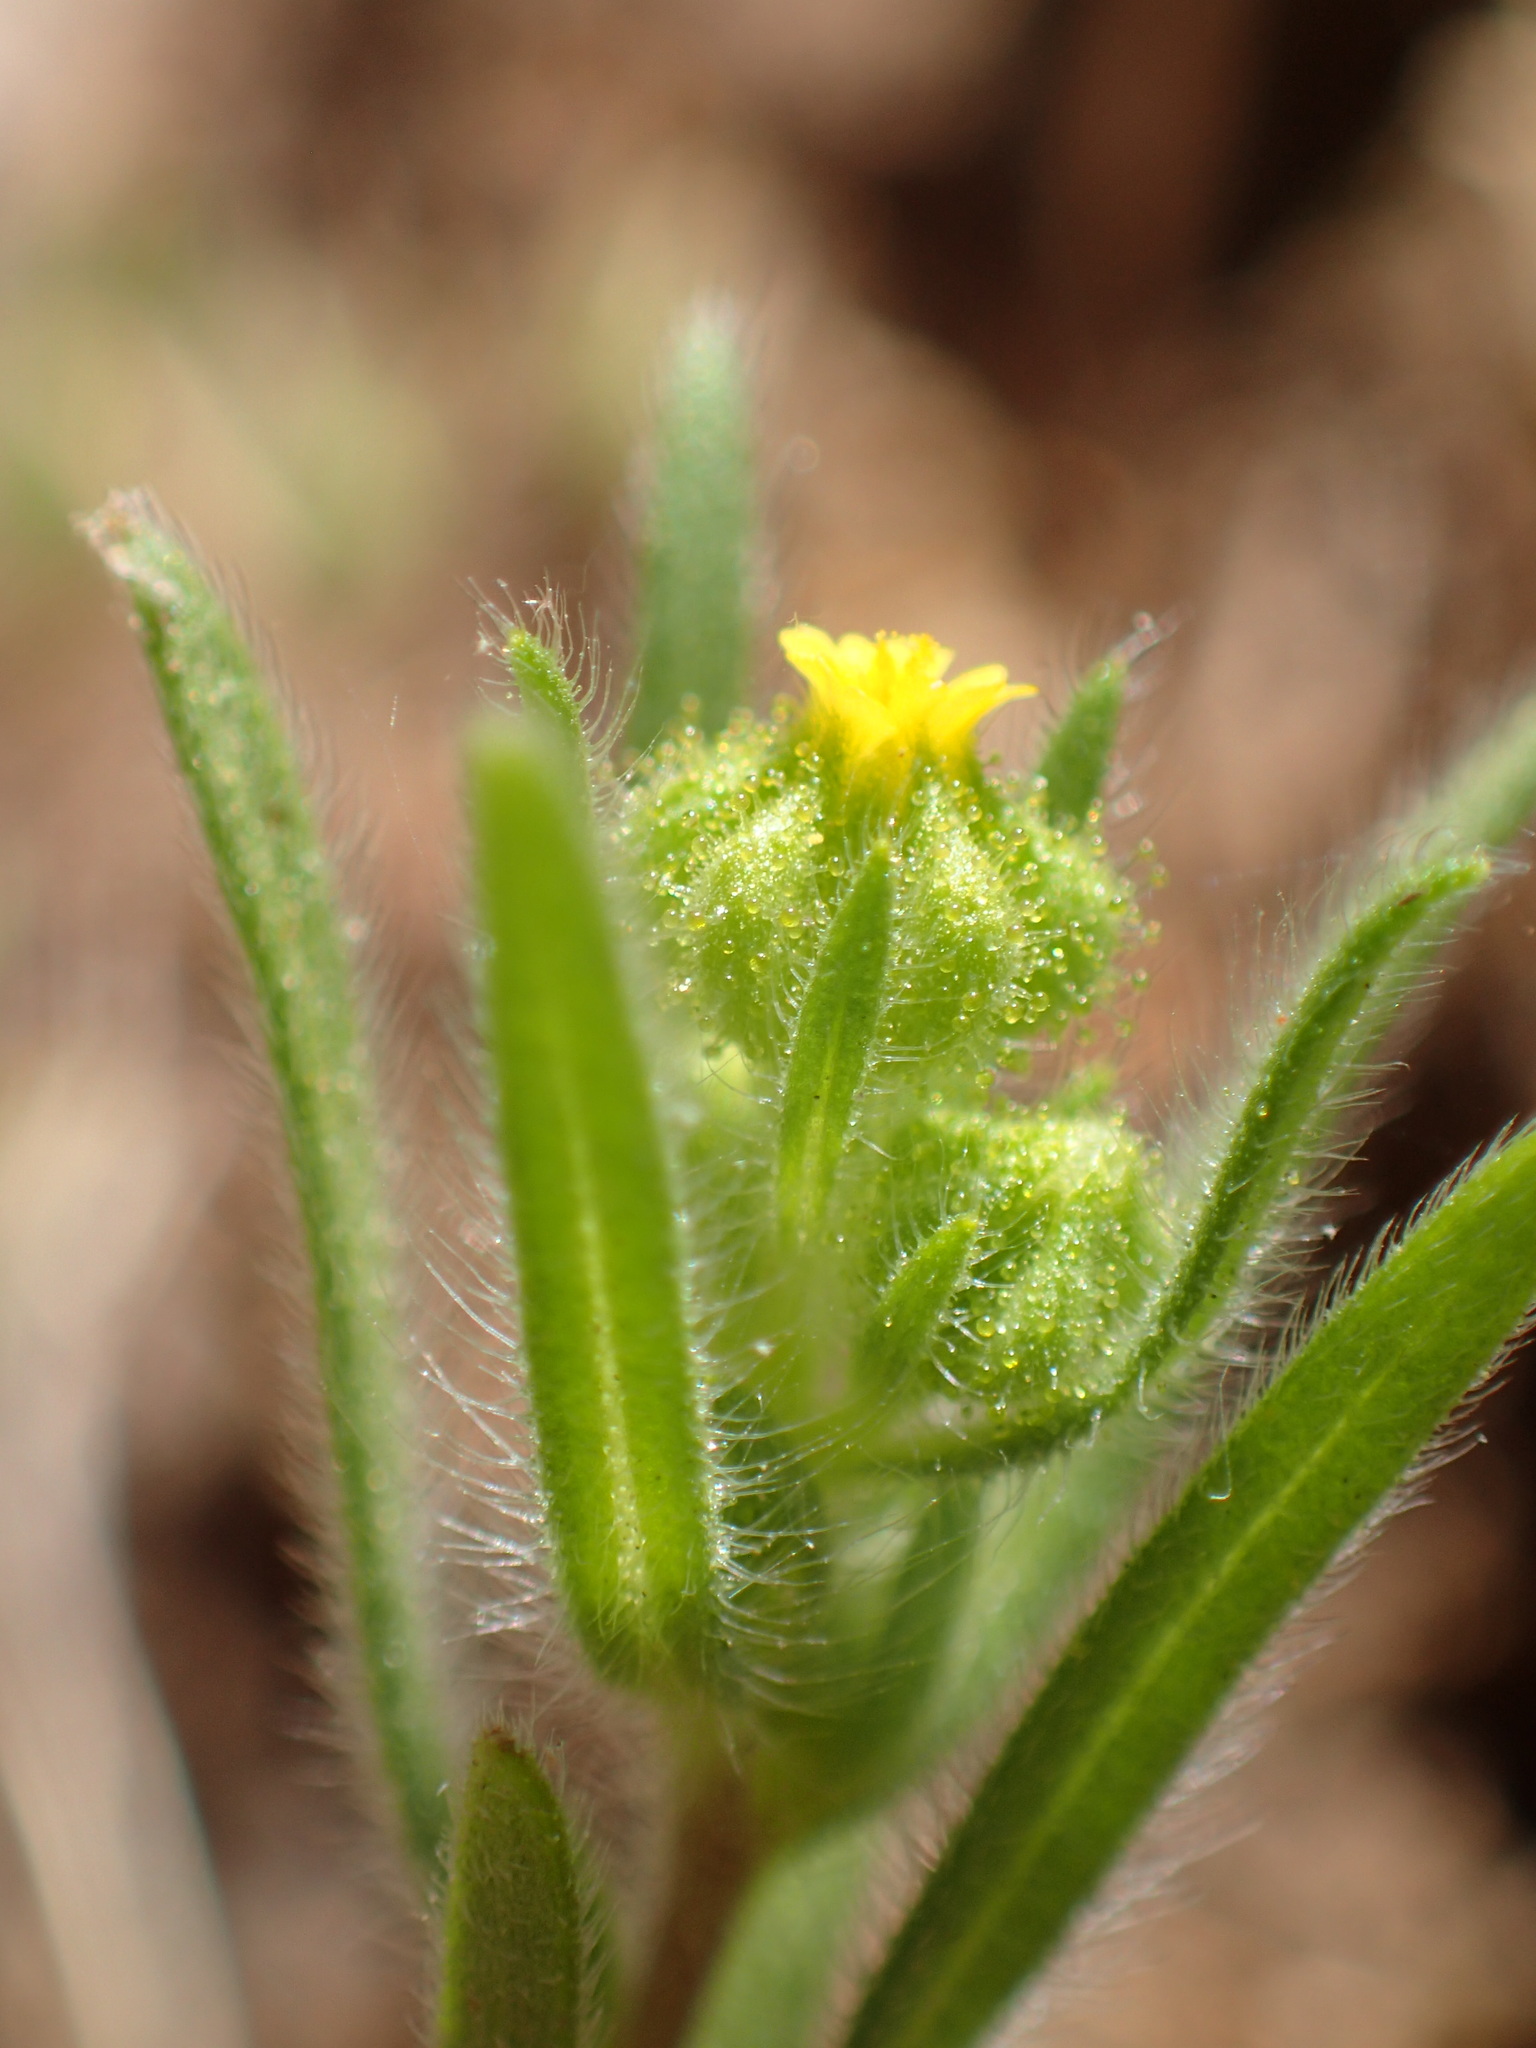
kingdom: Plantae
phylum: Tracheophyta
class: Magnoliopsida
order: Asterales
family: Asteraceae
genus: Madia
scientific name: Madia exigua
